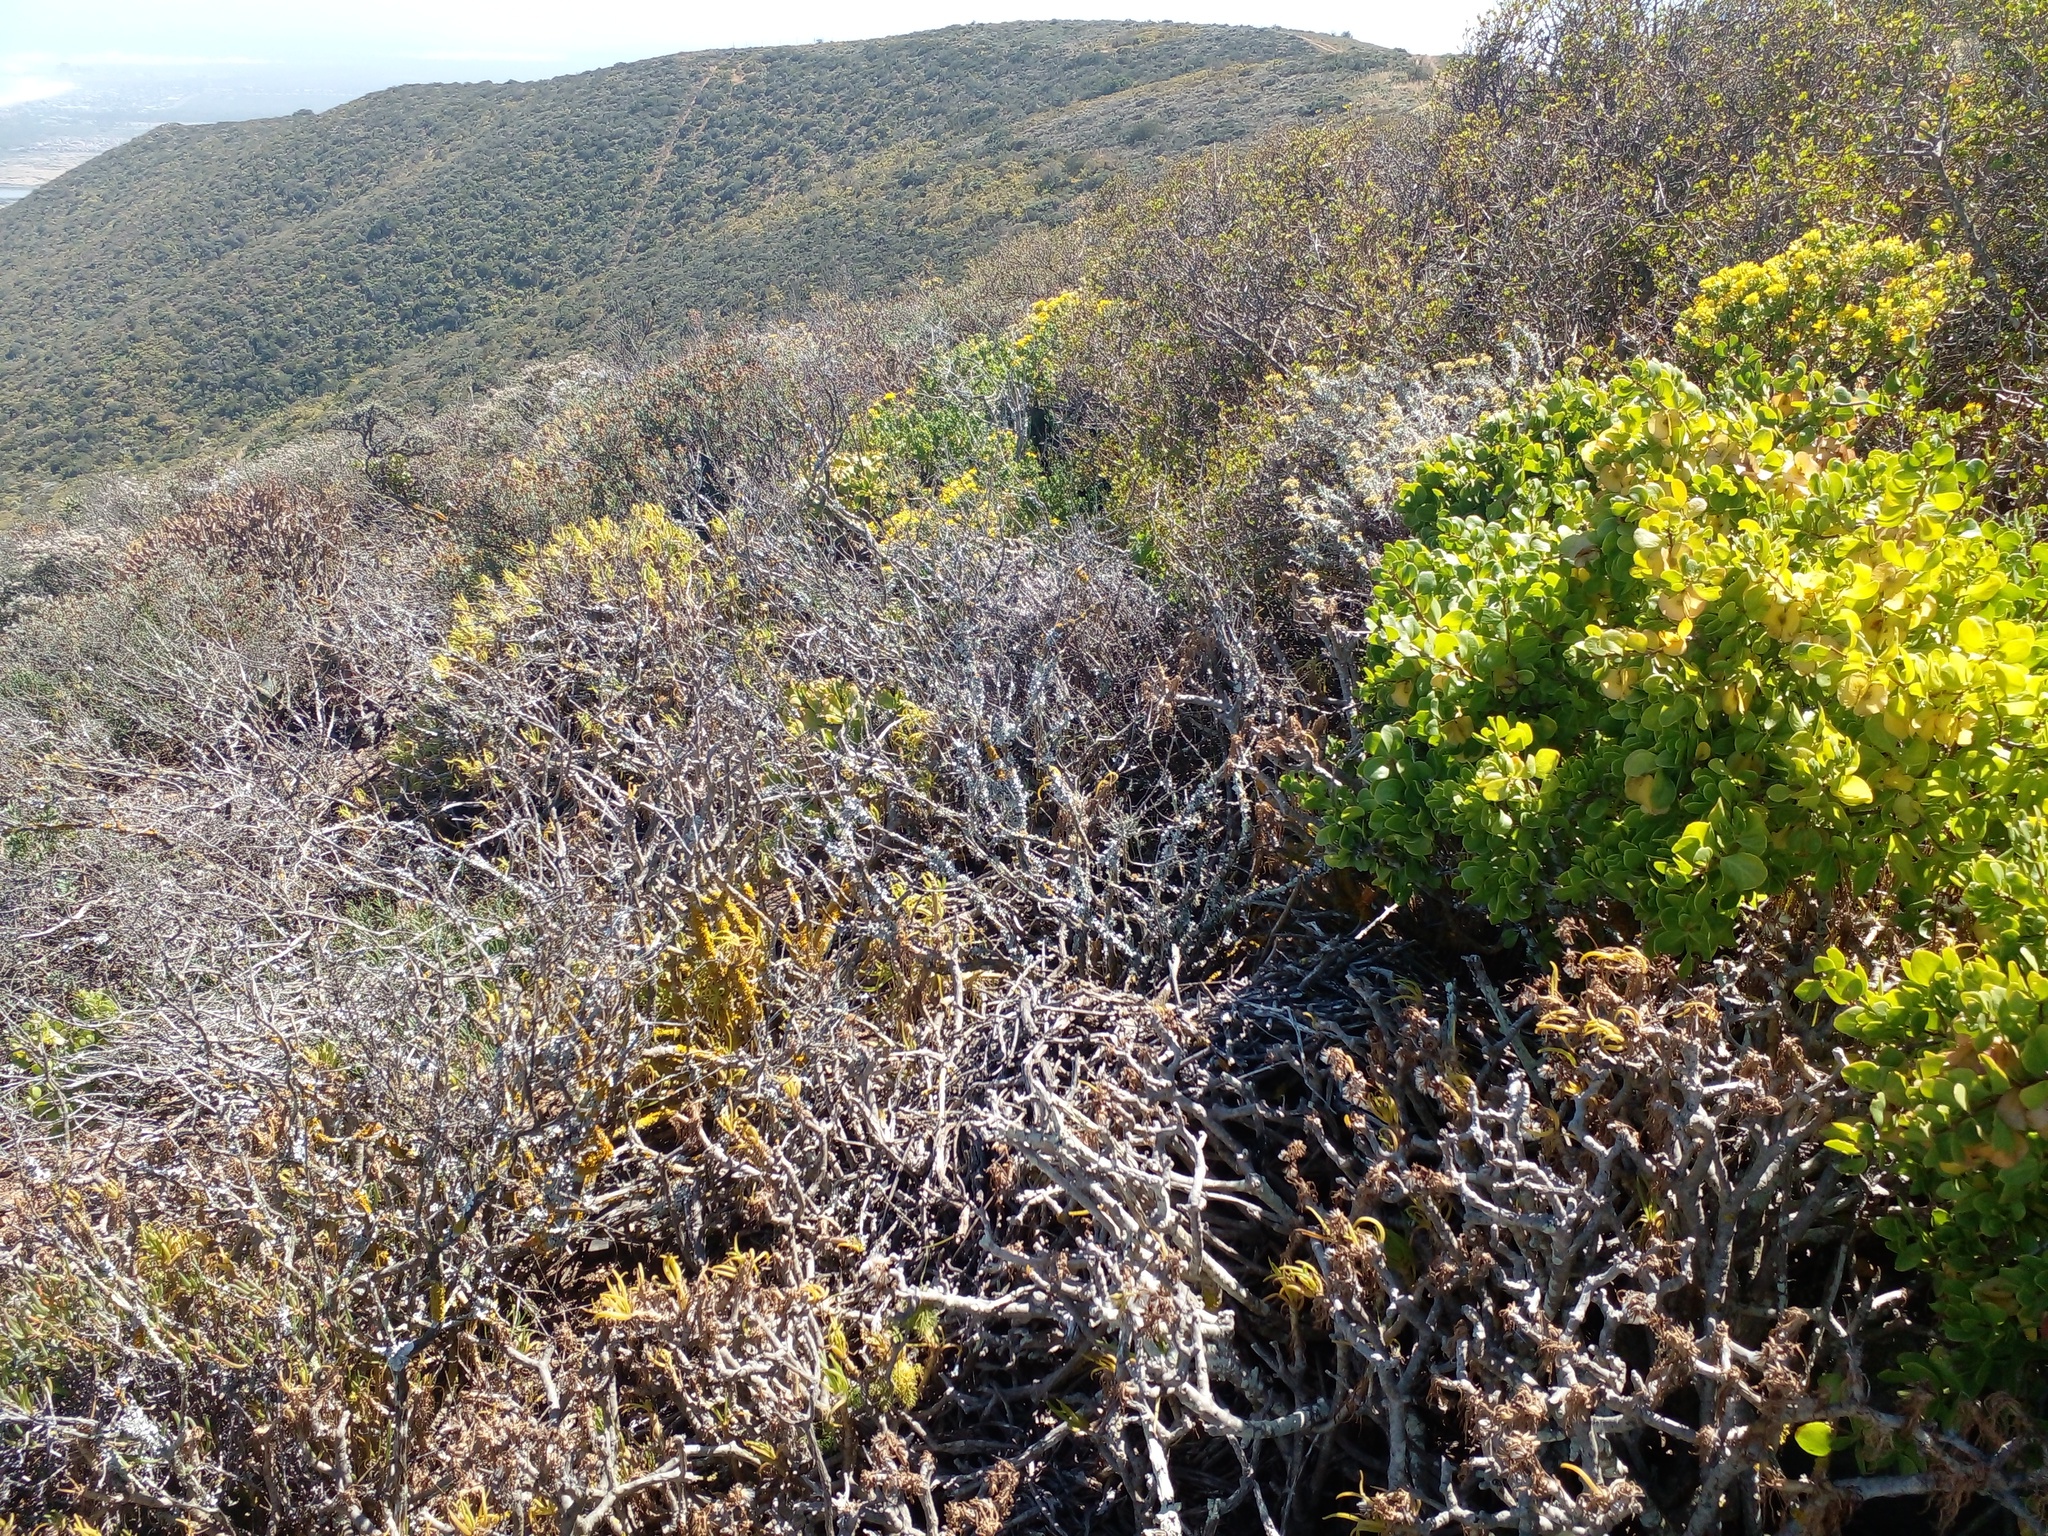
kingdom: Plantae
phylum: Tracheophyta
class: Magnoliopsida
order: Asterales
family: Asteraceae
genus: Pteronia
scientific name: Pteronia divaricata
